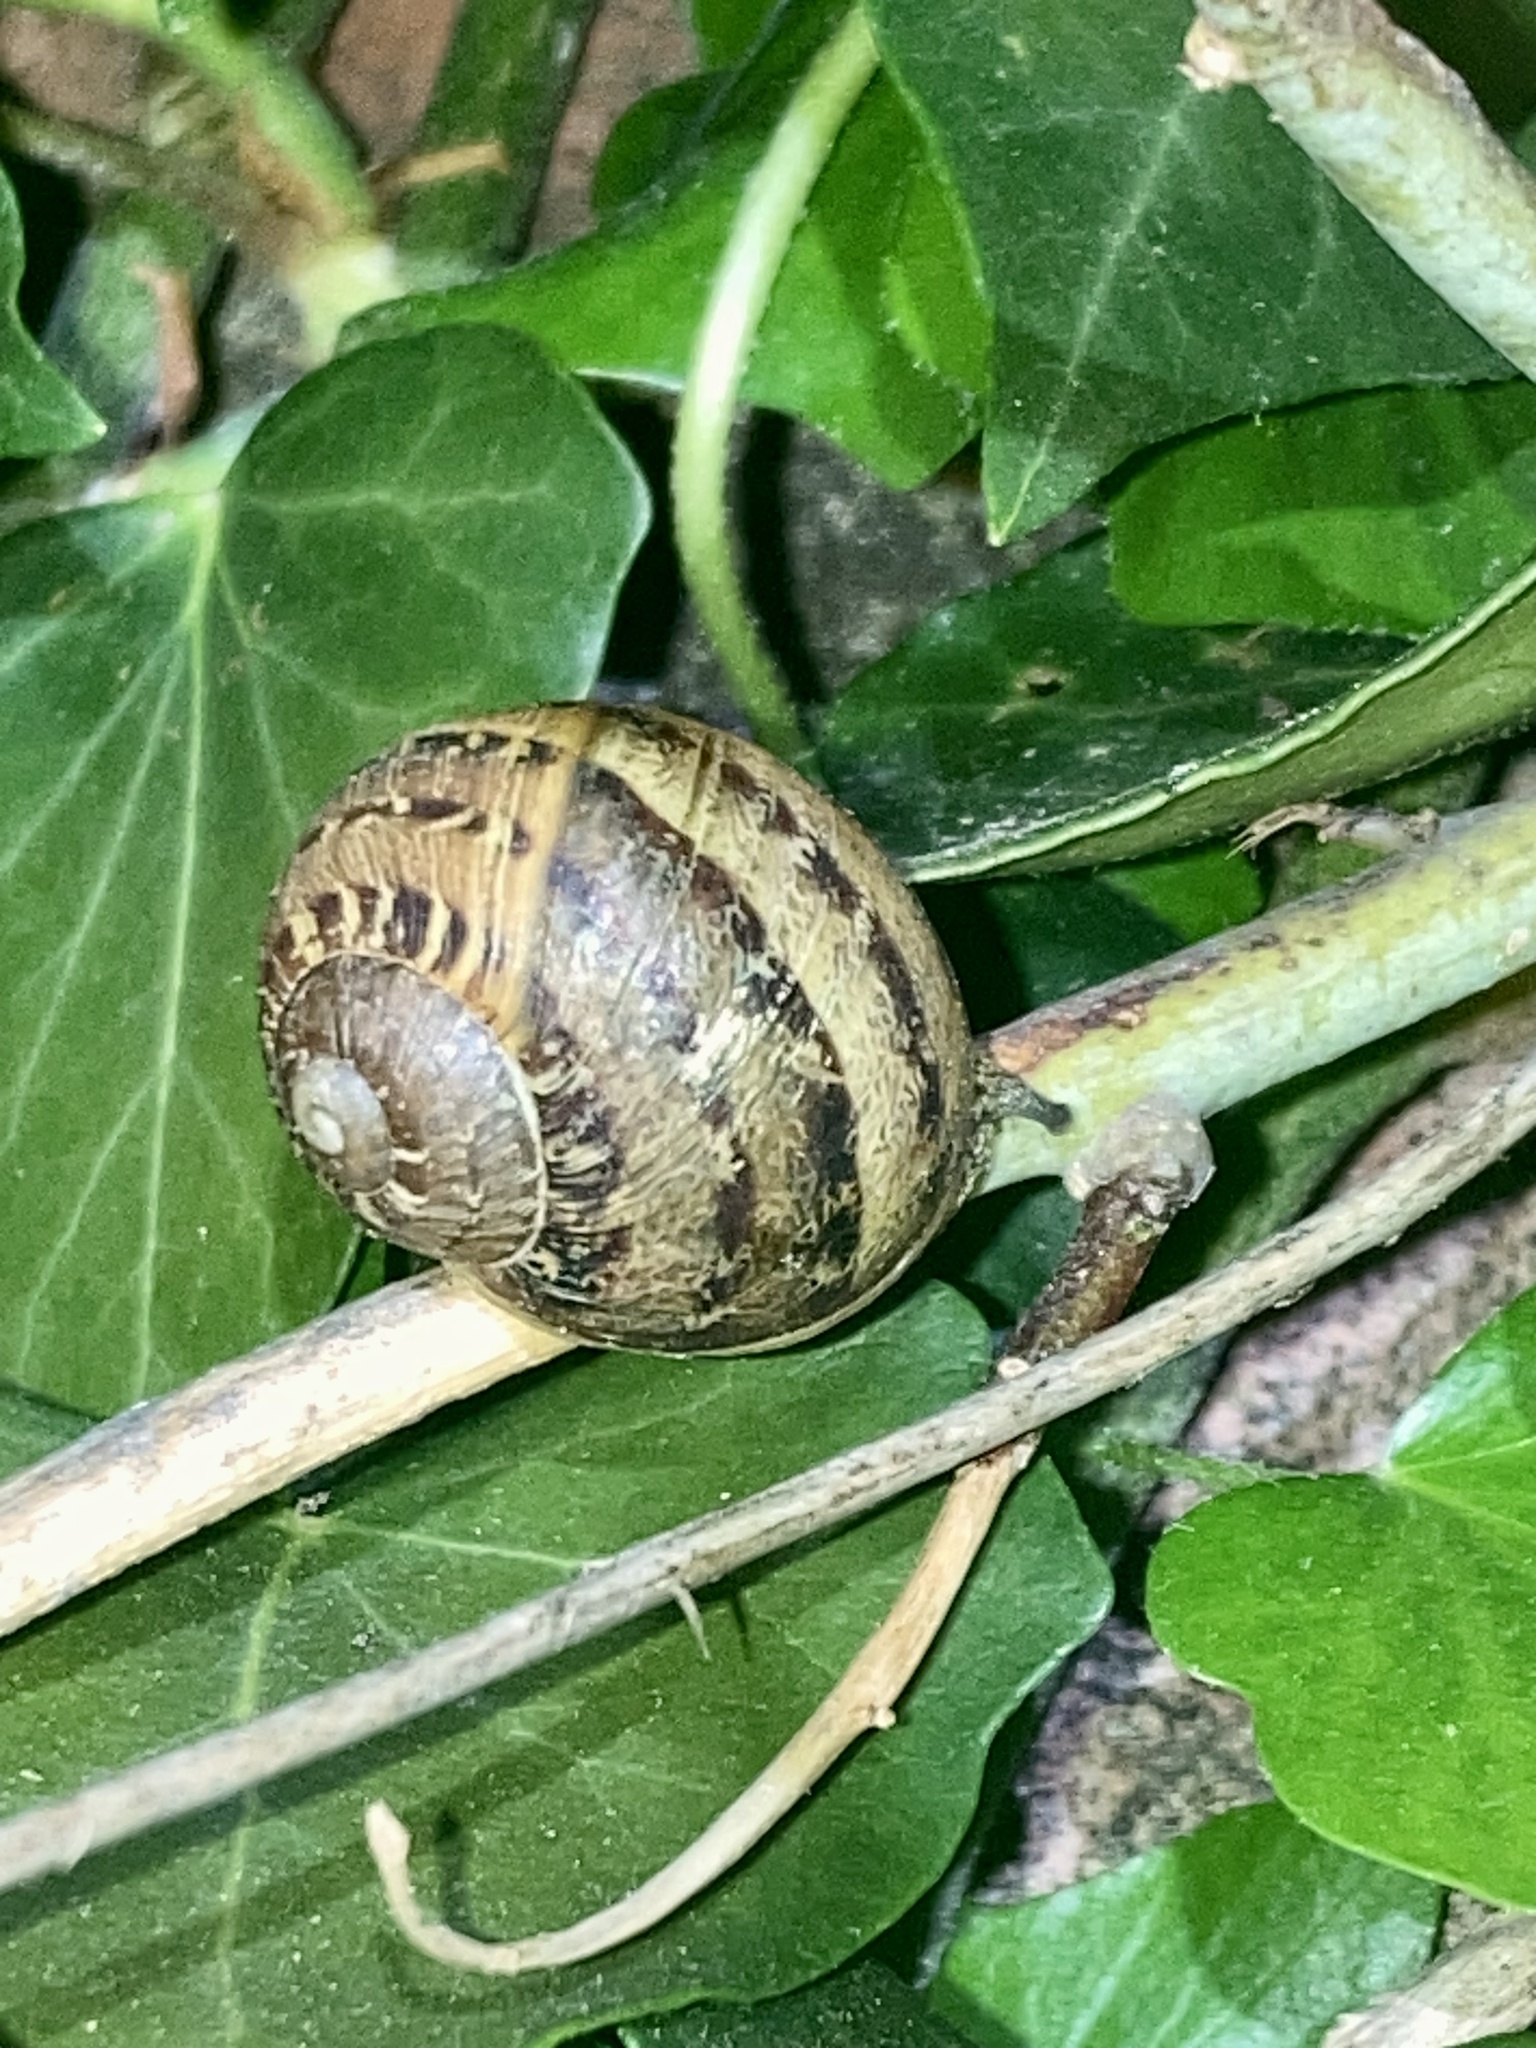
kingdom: Animalia
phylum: Mollusca
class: Gastropoda
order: Stylommatophora
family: Helicidae
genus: Cornu
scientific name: Cornu aspersum
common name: Brown garden snail
